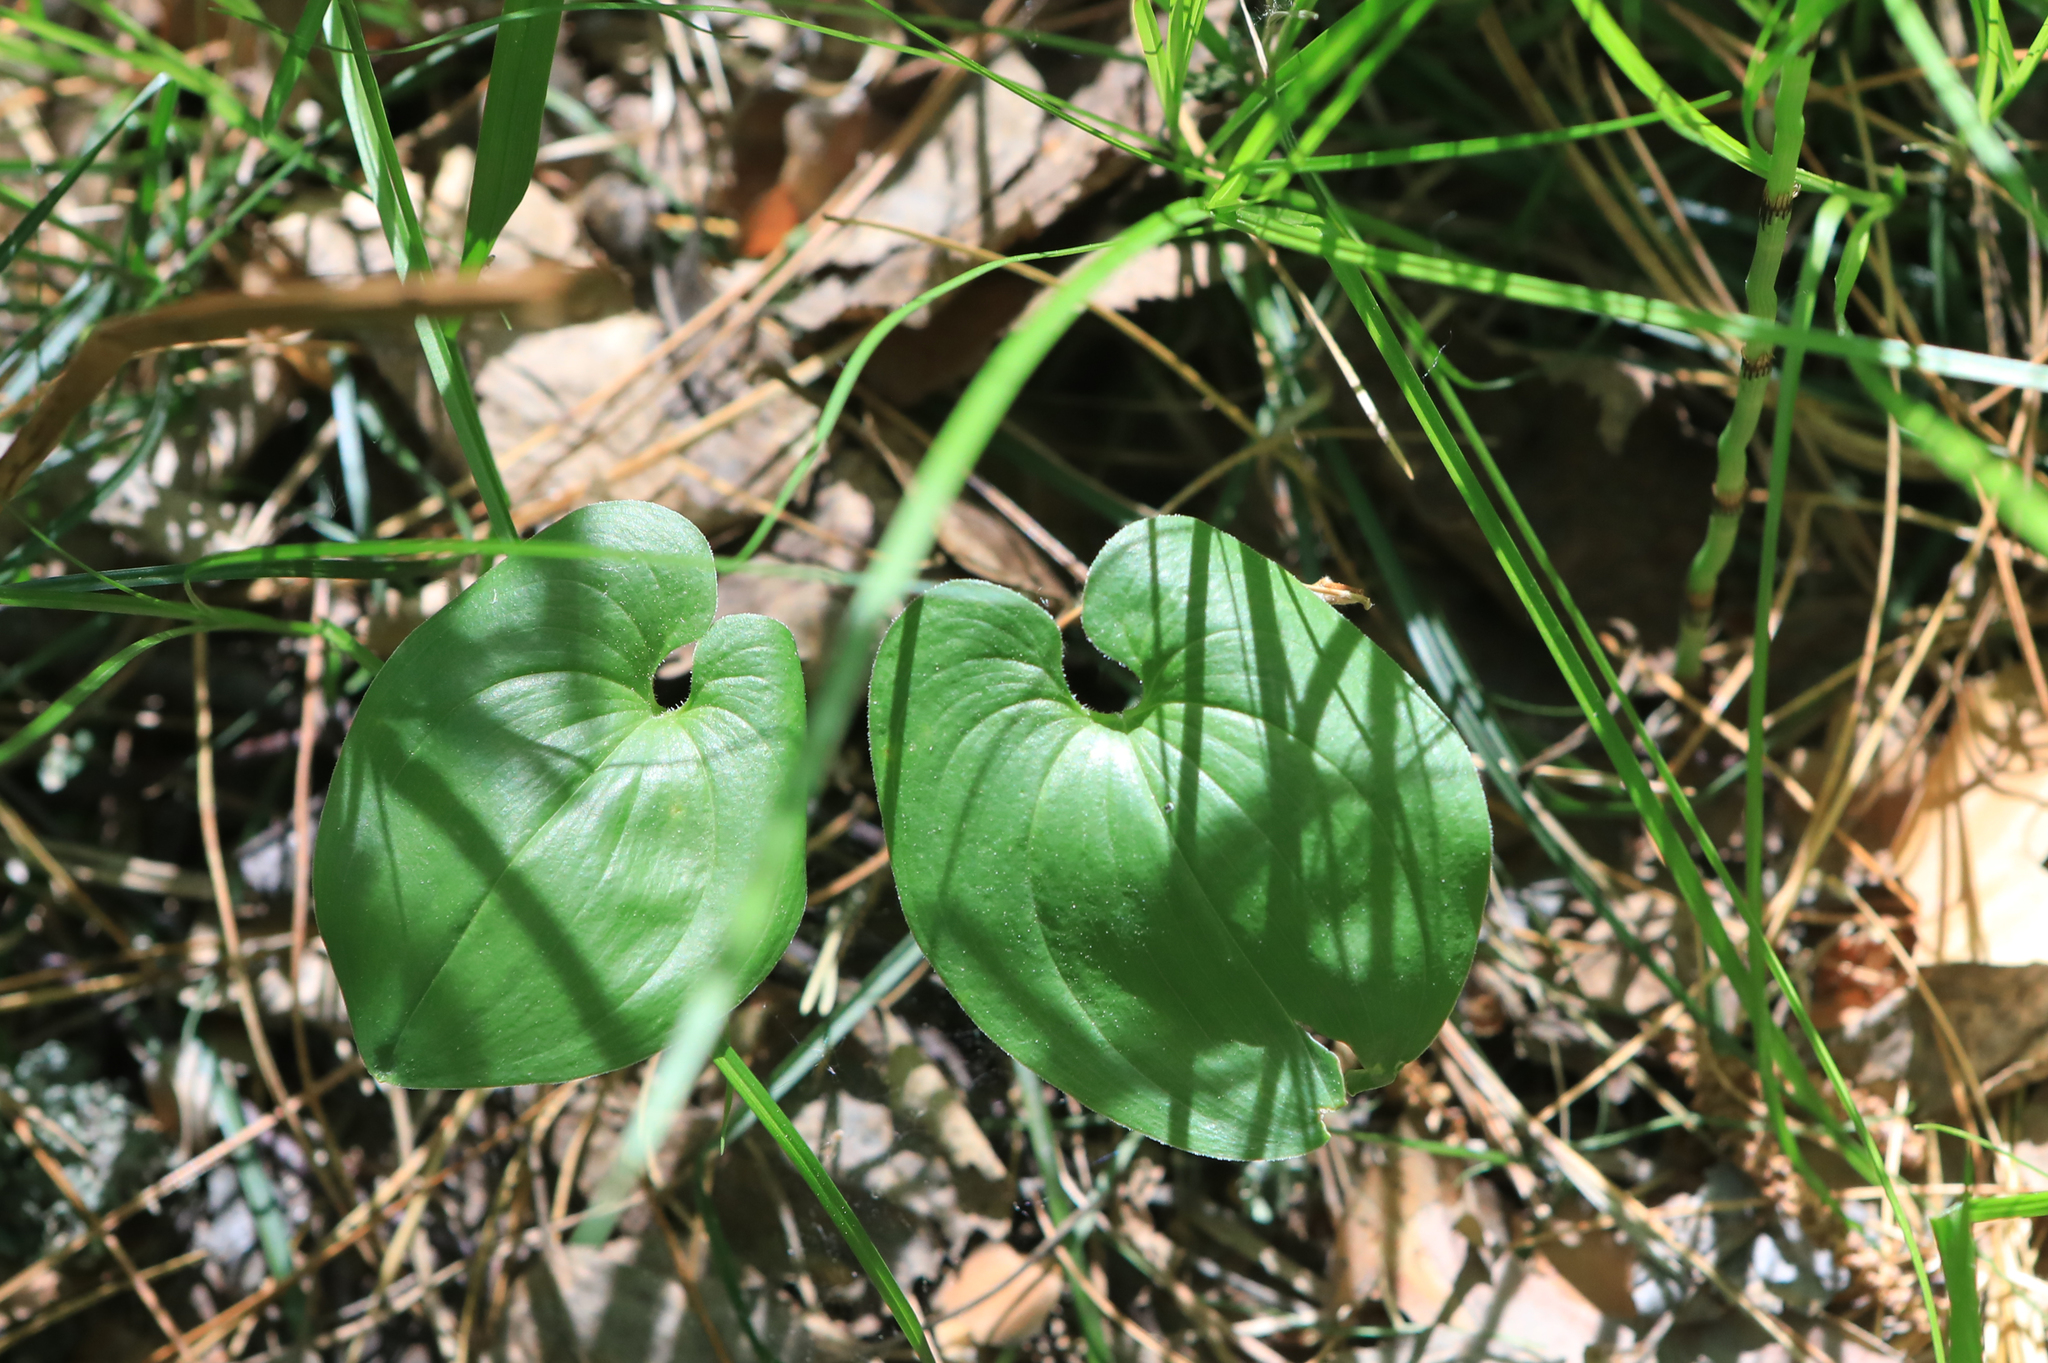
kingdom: Plantae
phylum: Tracheophyta
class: Liliopsida
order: Asparagales
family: Asparagaceae
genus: Maianthemum
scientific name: Maianthemum bifolium
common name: May lily
